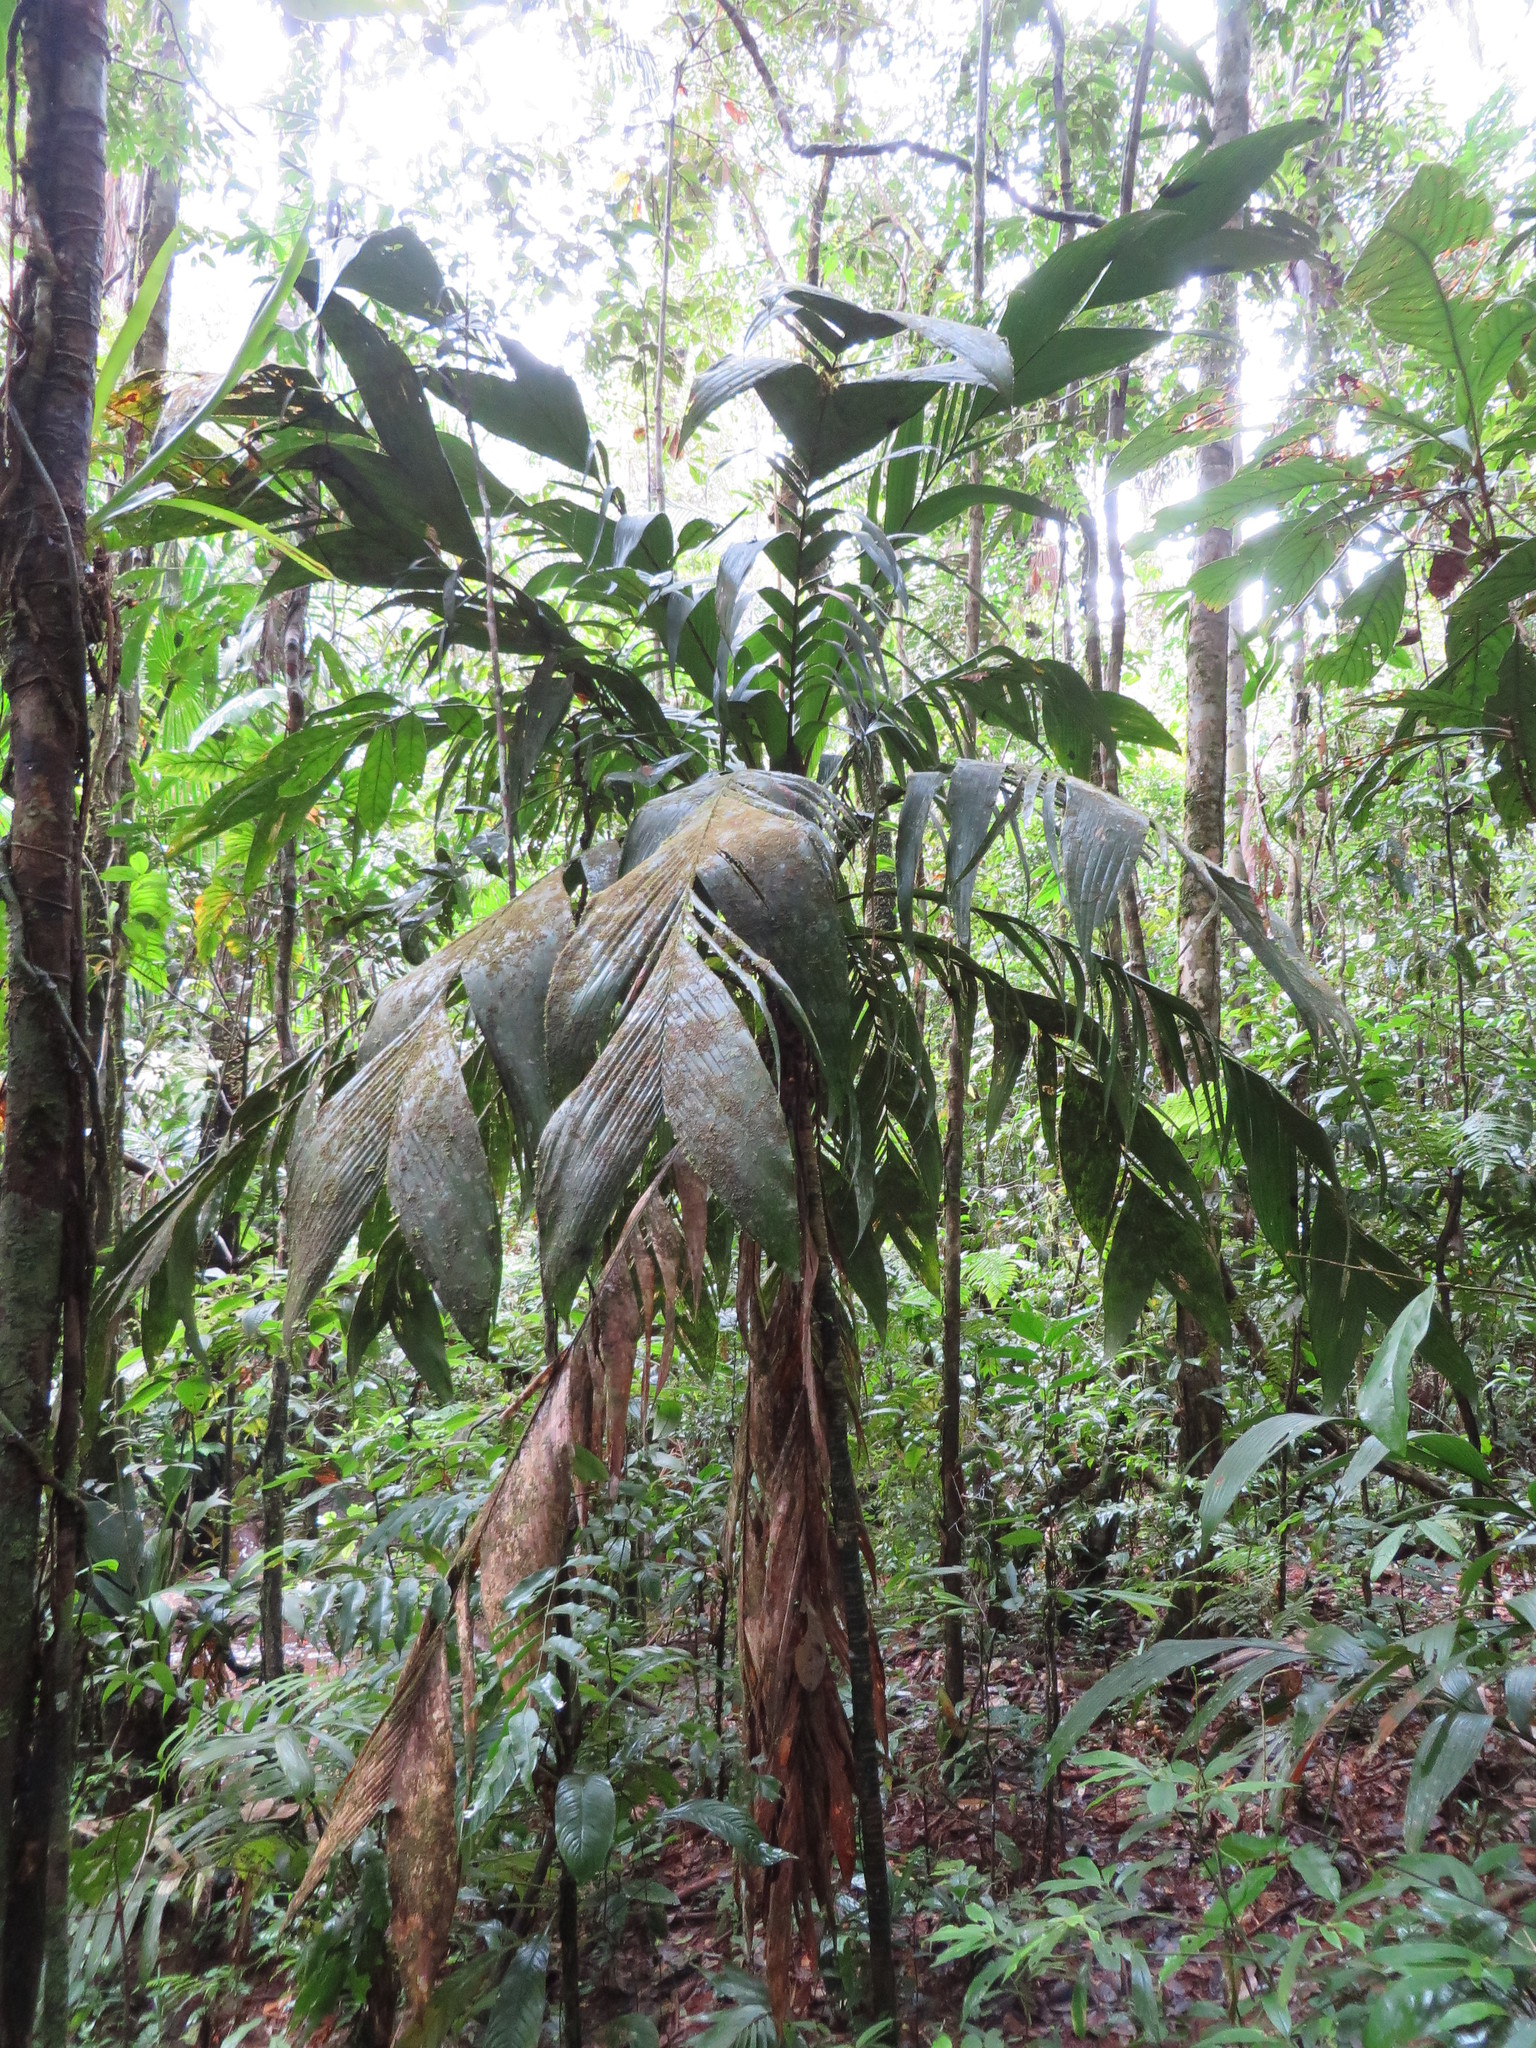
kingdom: Plantae
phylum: Tracheophyta
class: Liliopsida
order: Arecales
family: Arecaceae
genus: Geonoma
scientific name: Geonoma triglochin
